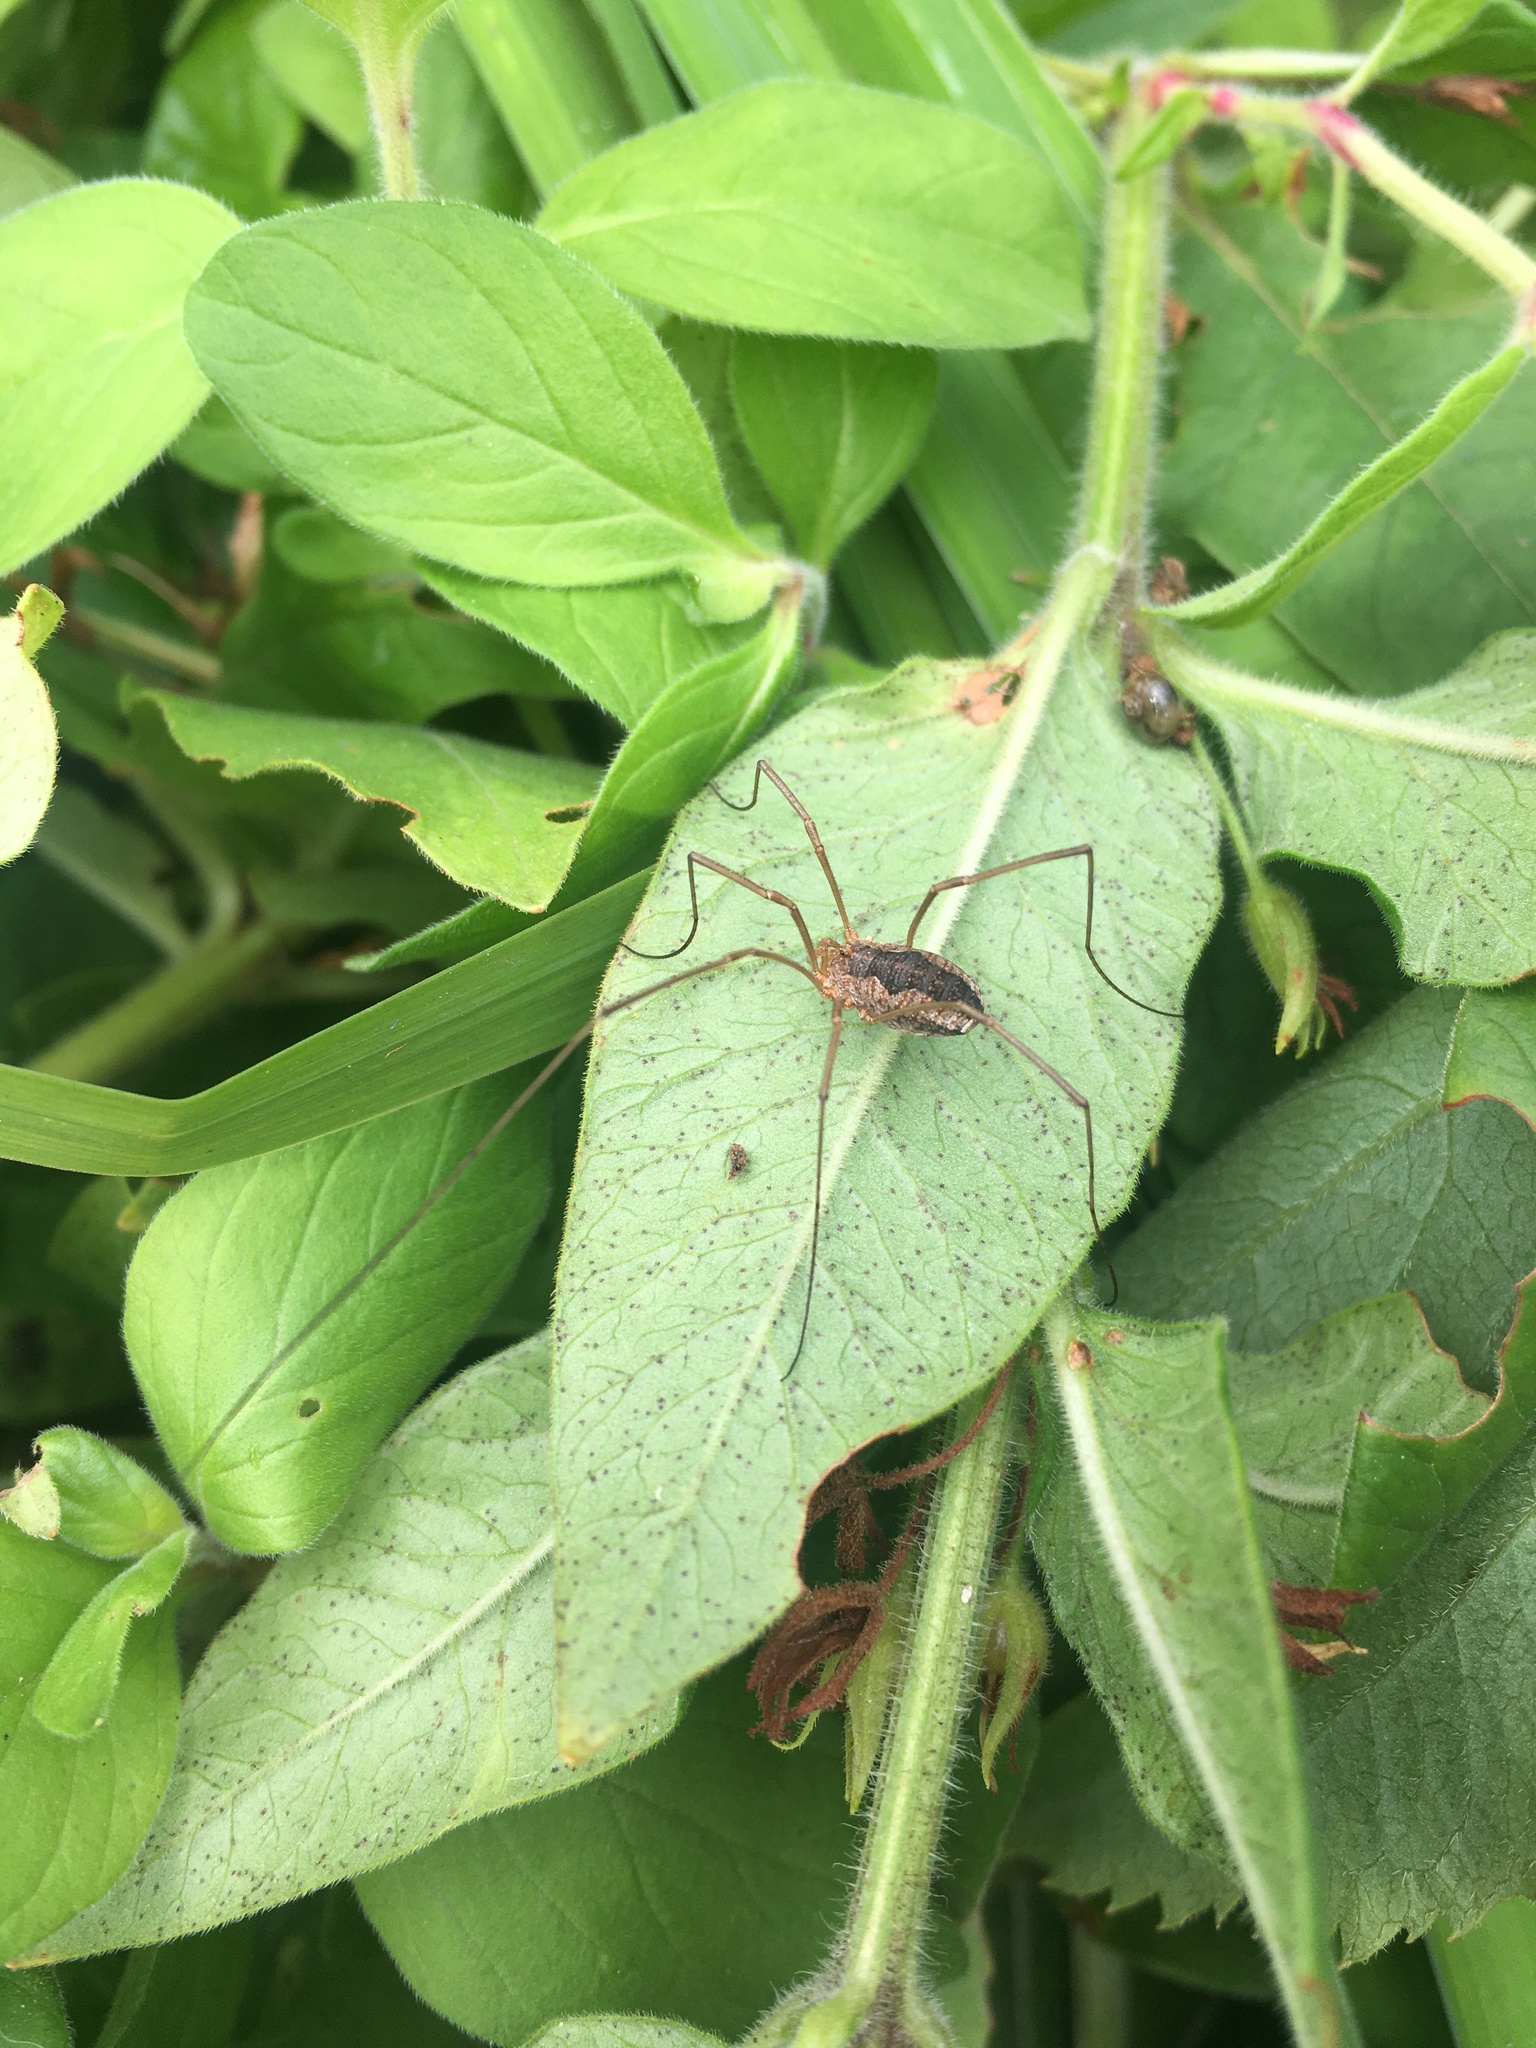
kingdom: Animalia
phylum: Arthropoda
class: Arachnida
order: Opiliones
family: Phalangiidae
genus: Phalangium
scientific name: Phalangium opilio
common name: Daddy longleg
